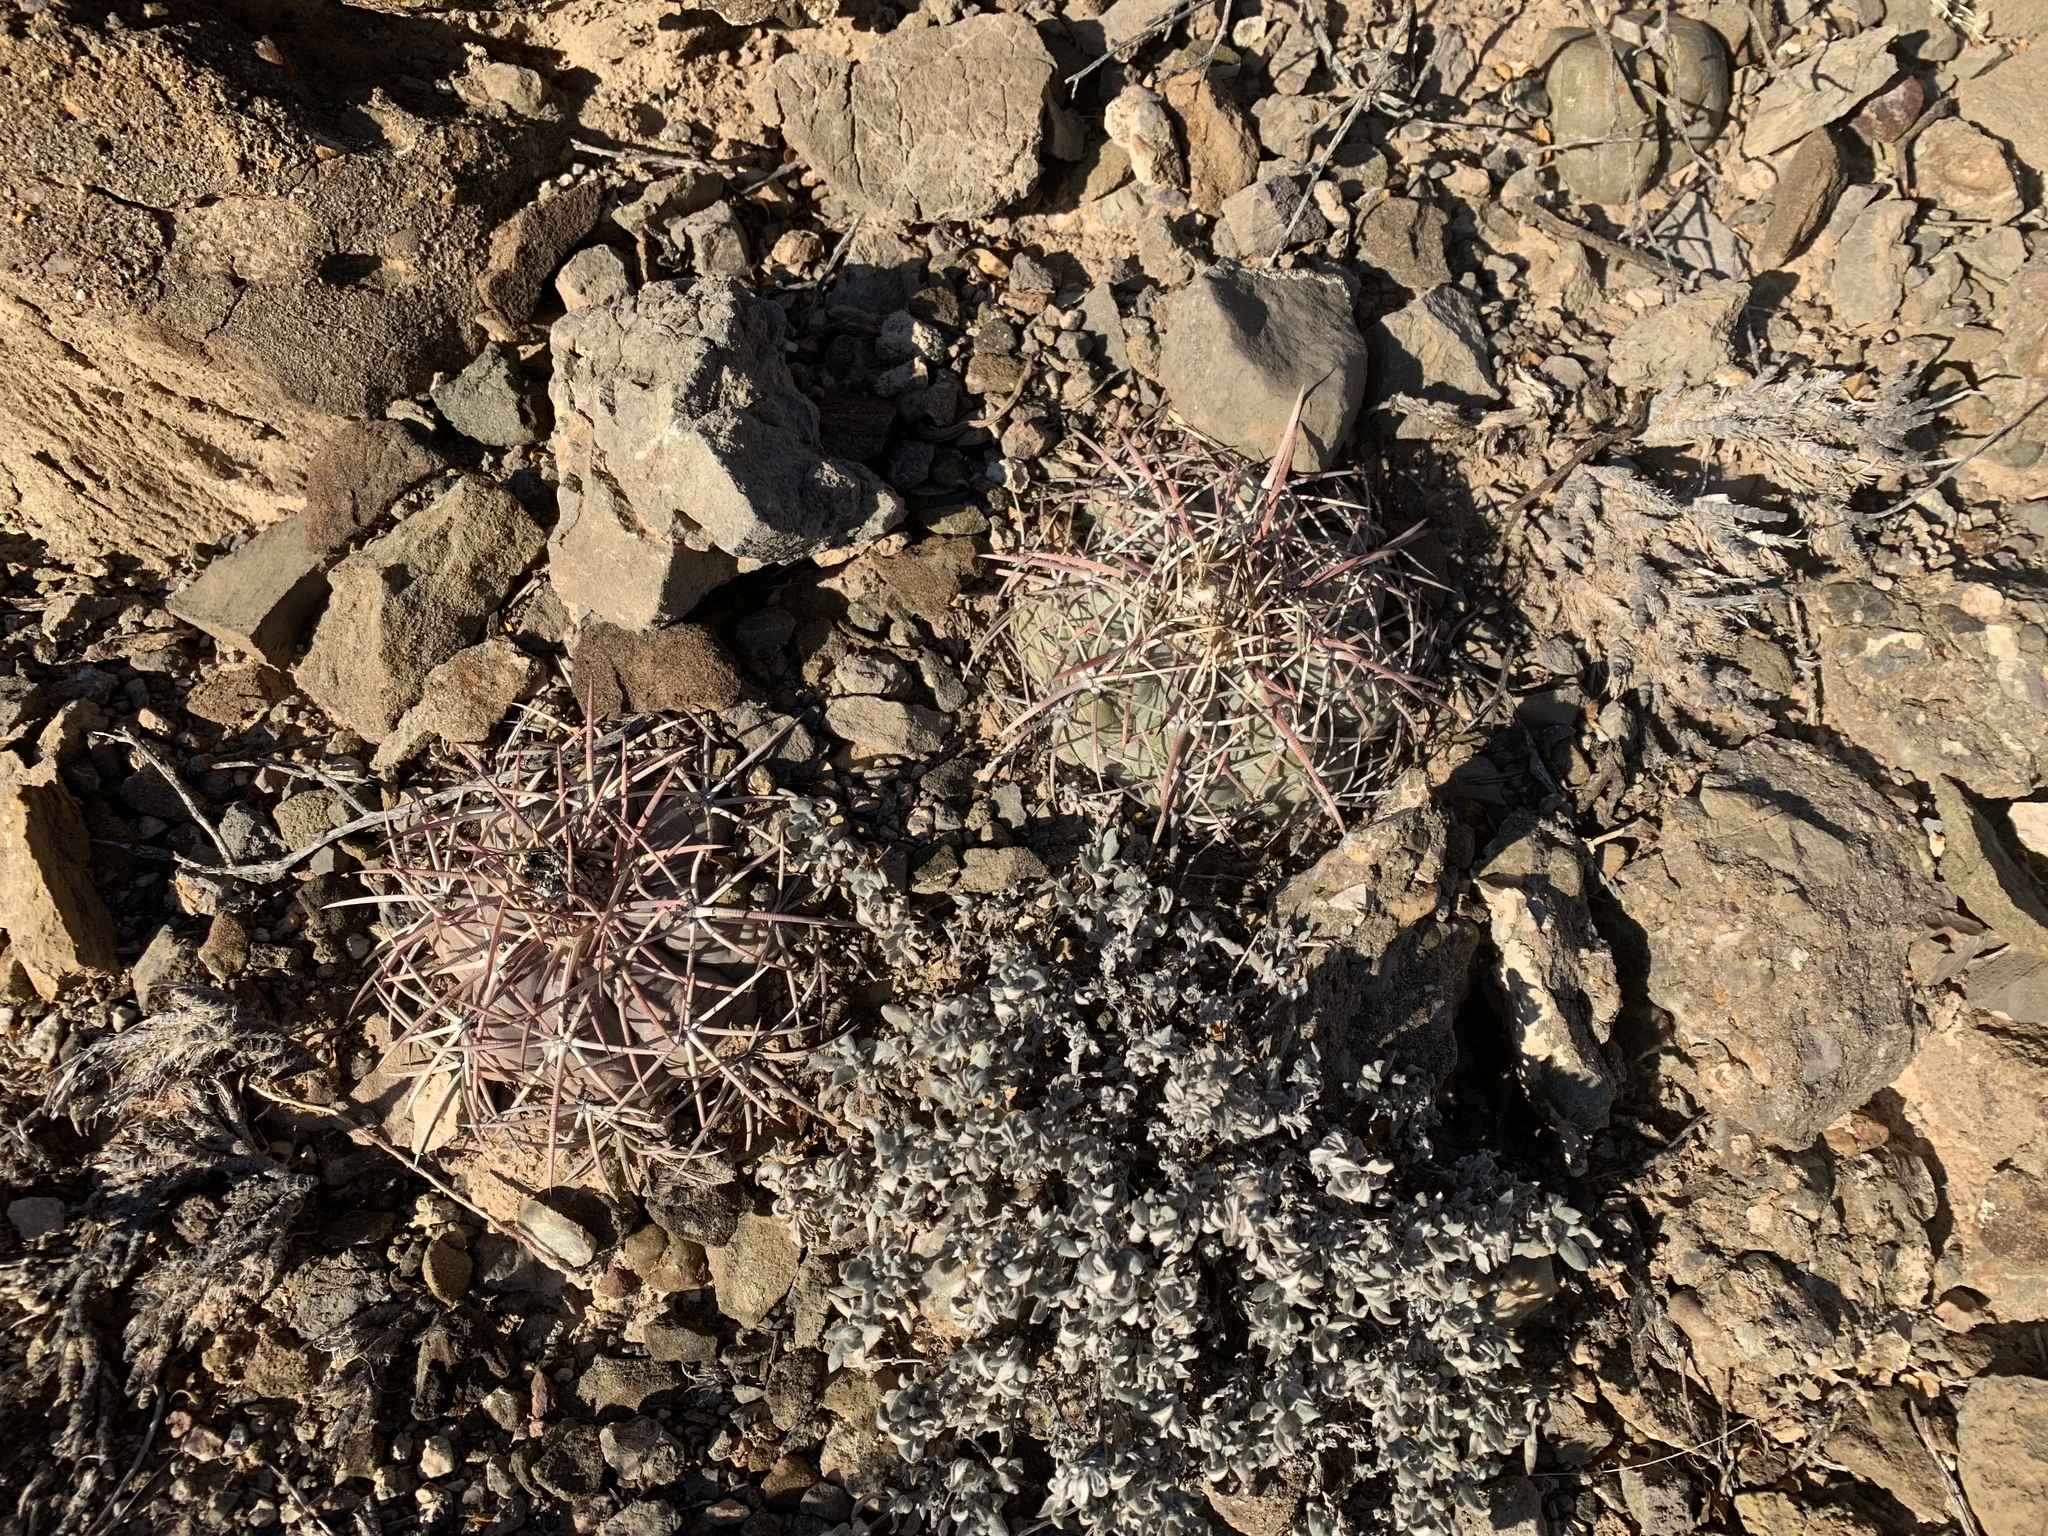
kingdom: Plantae
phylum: Tracheophyta
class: Magnoliopsida
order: Caryophyllales
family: Cactaceae
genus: Echinocactus
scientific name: Echinocactus horizonthalonius
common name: Devilshead
